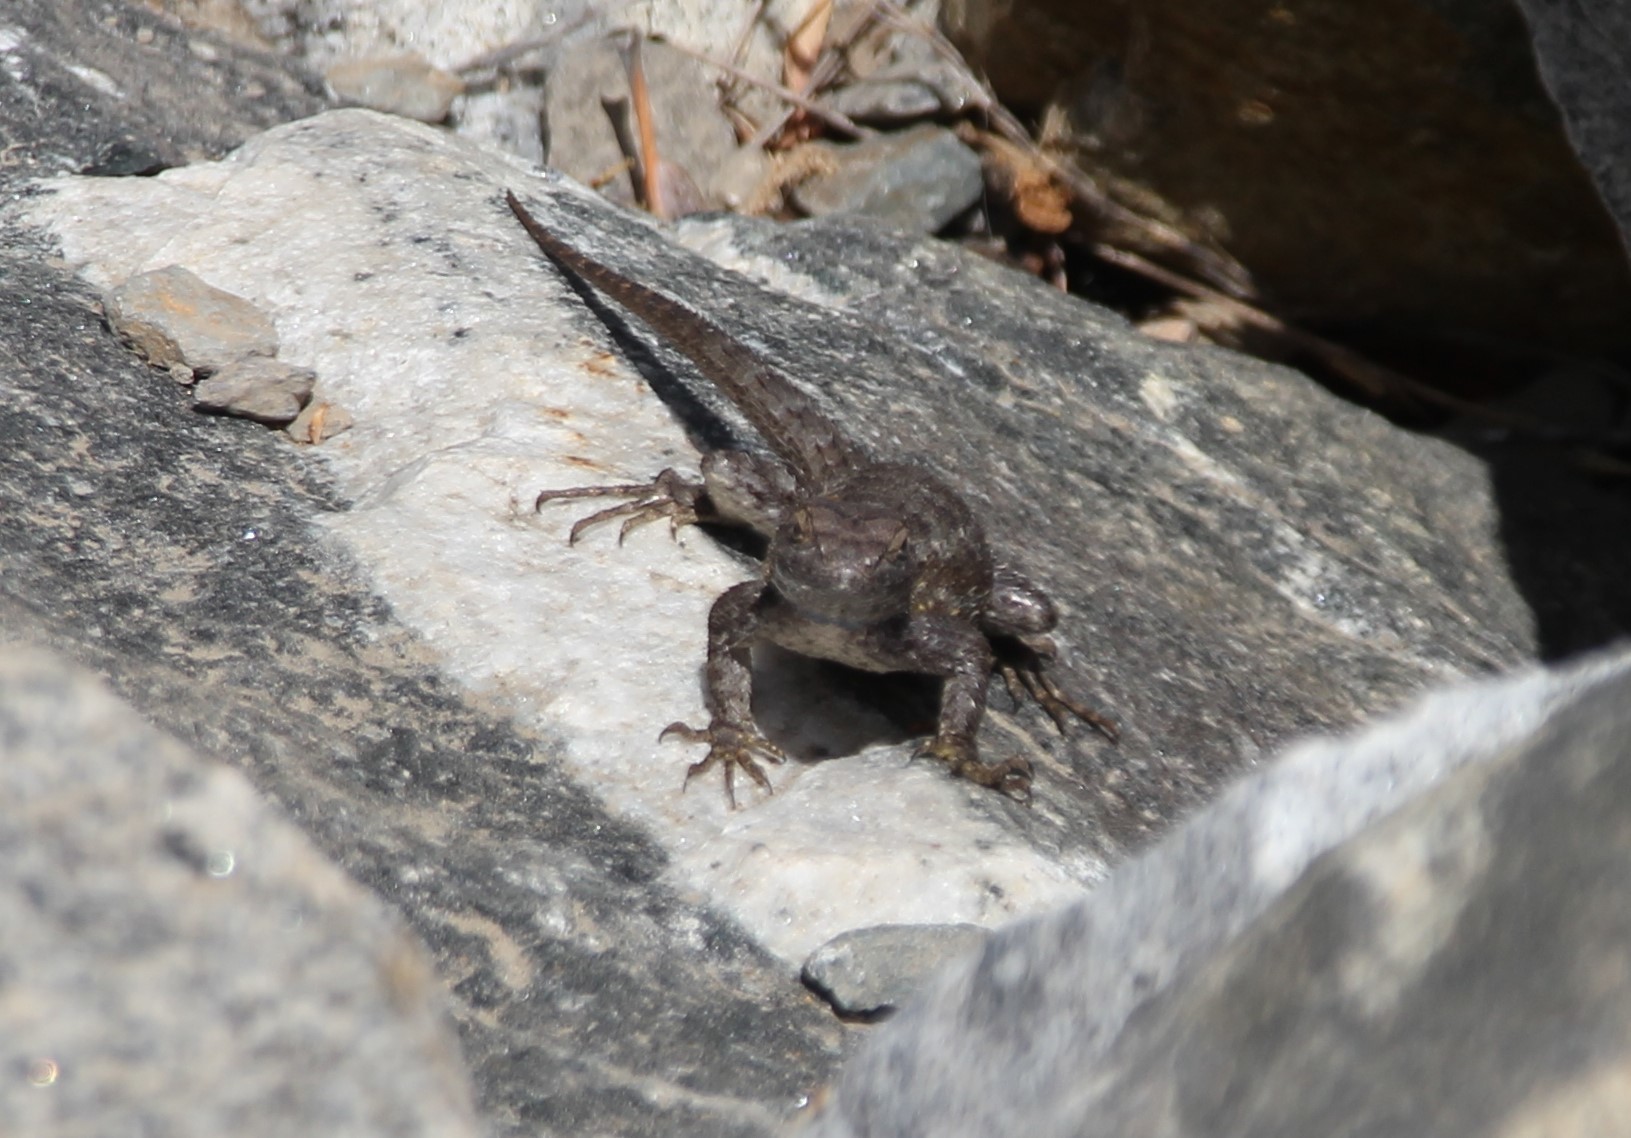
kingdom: Animalia
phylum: Chordata
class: Squamata
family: Phrynosomatidae
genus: Sceloporus
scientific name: Sceloporus occidentalis
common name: Western fence lizard
